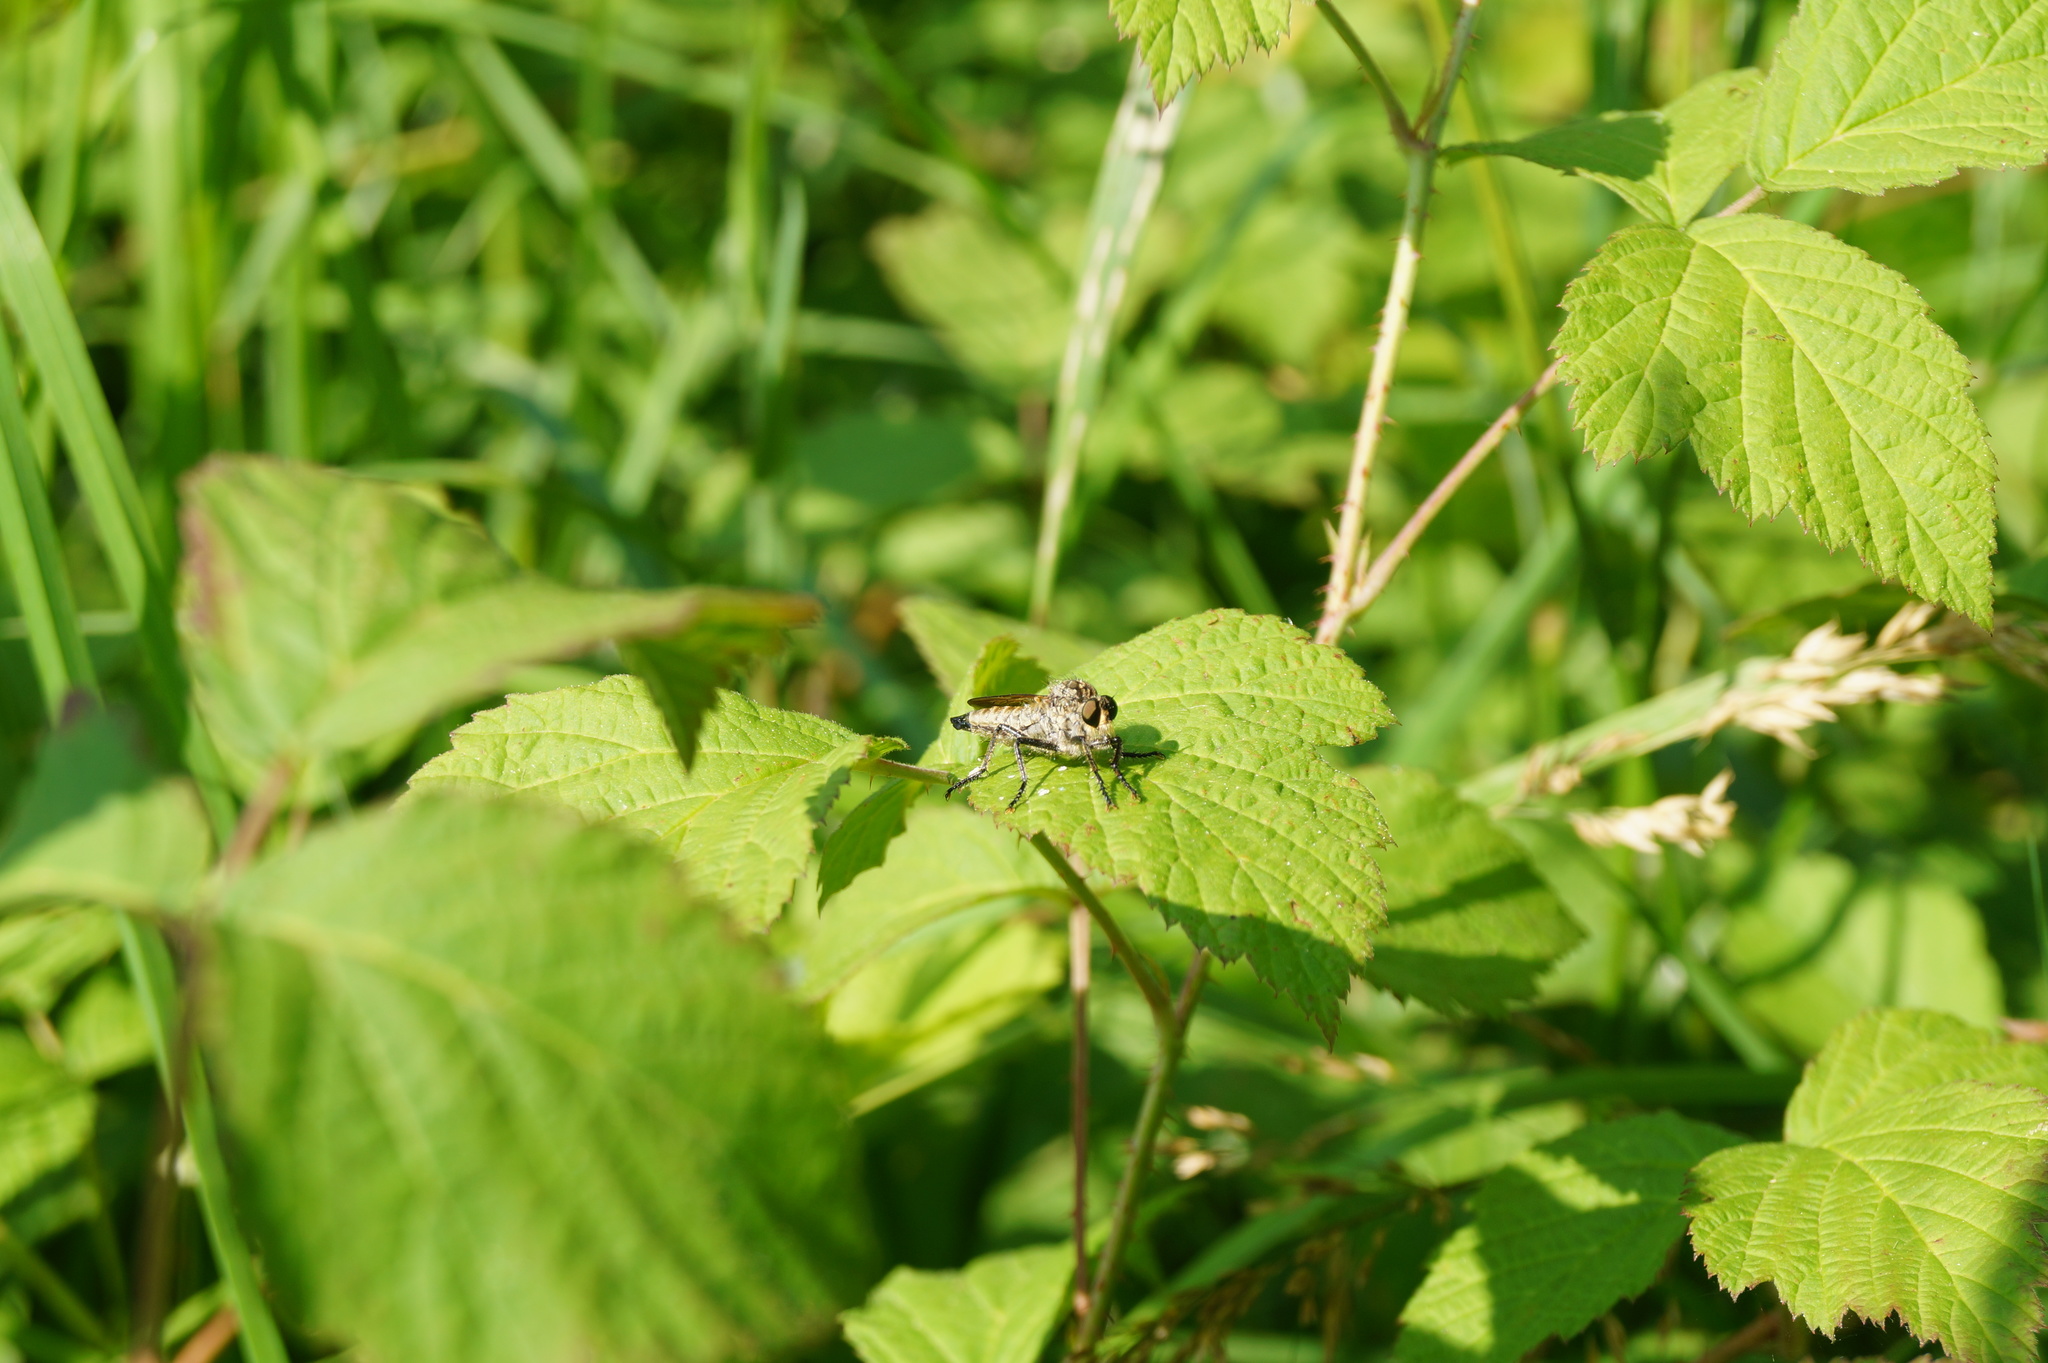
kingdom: Animalia
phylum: Arthropoda
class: Insecta
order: Diptera
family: Asilidae
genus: Eutolmus
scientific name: Eutolmus rufibarbis
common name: Golden-tabbed robberfly
